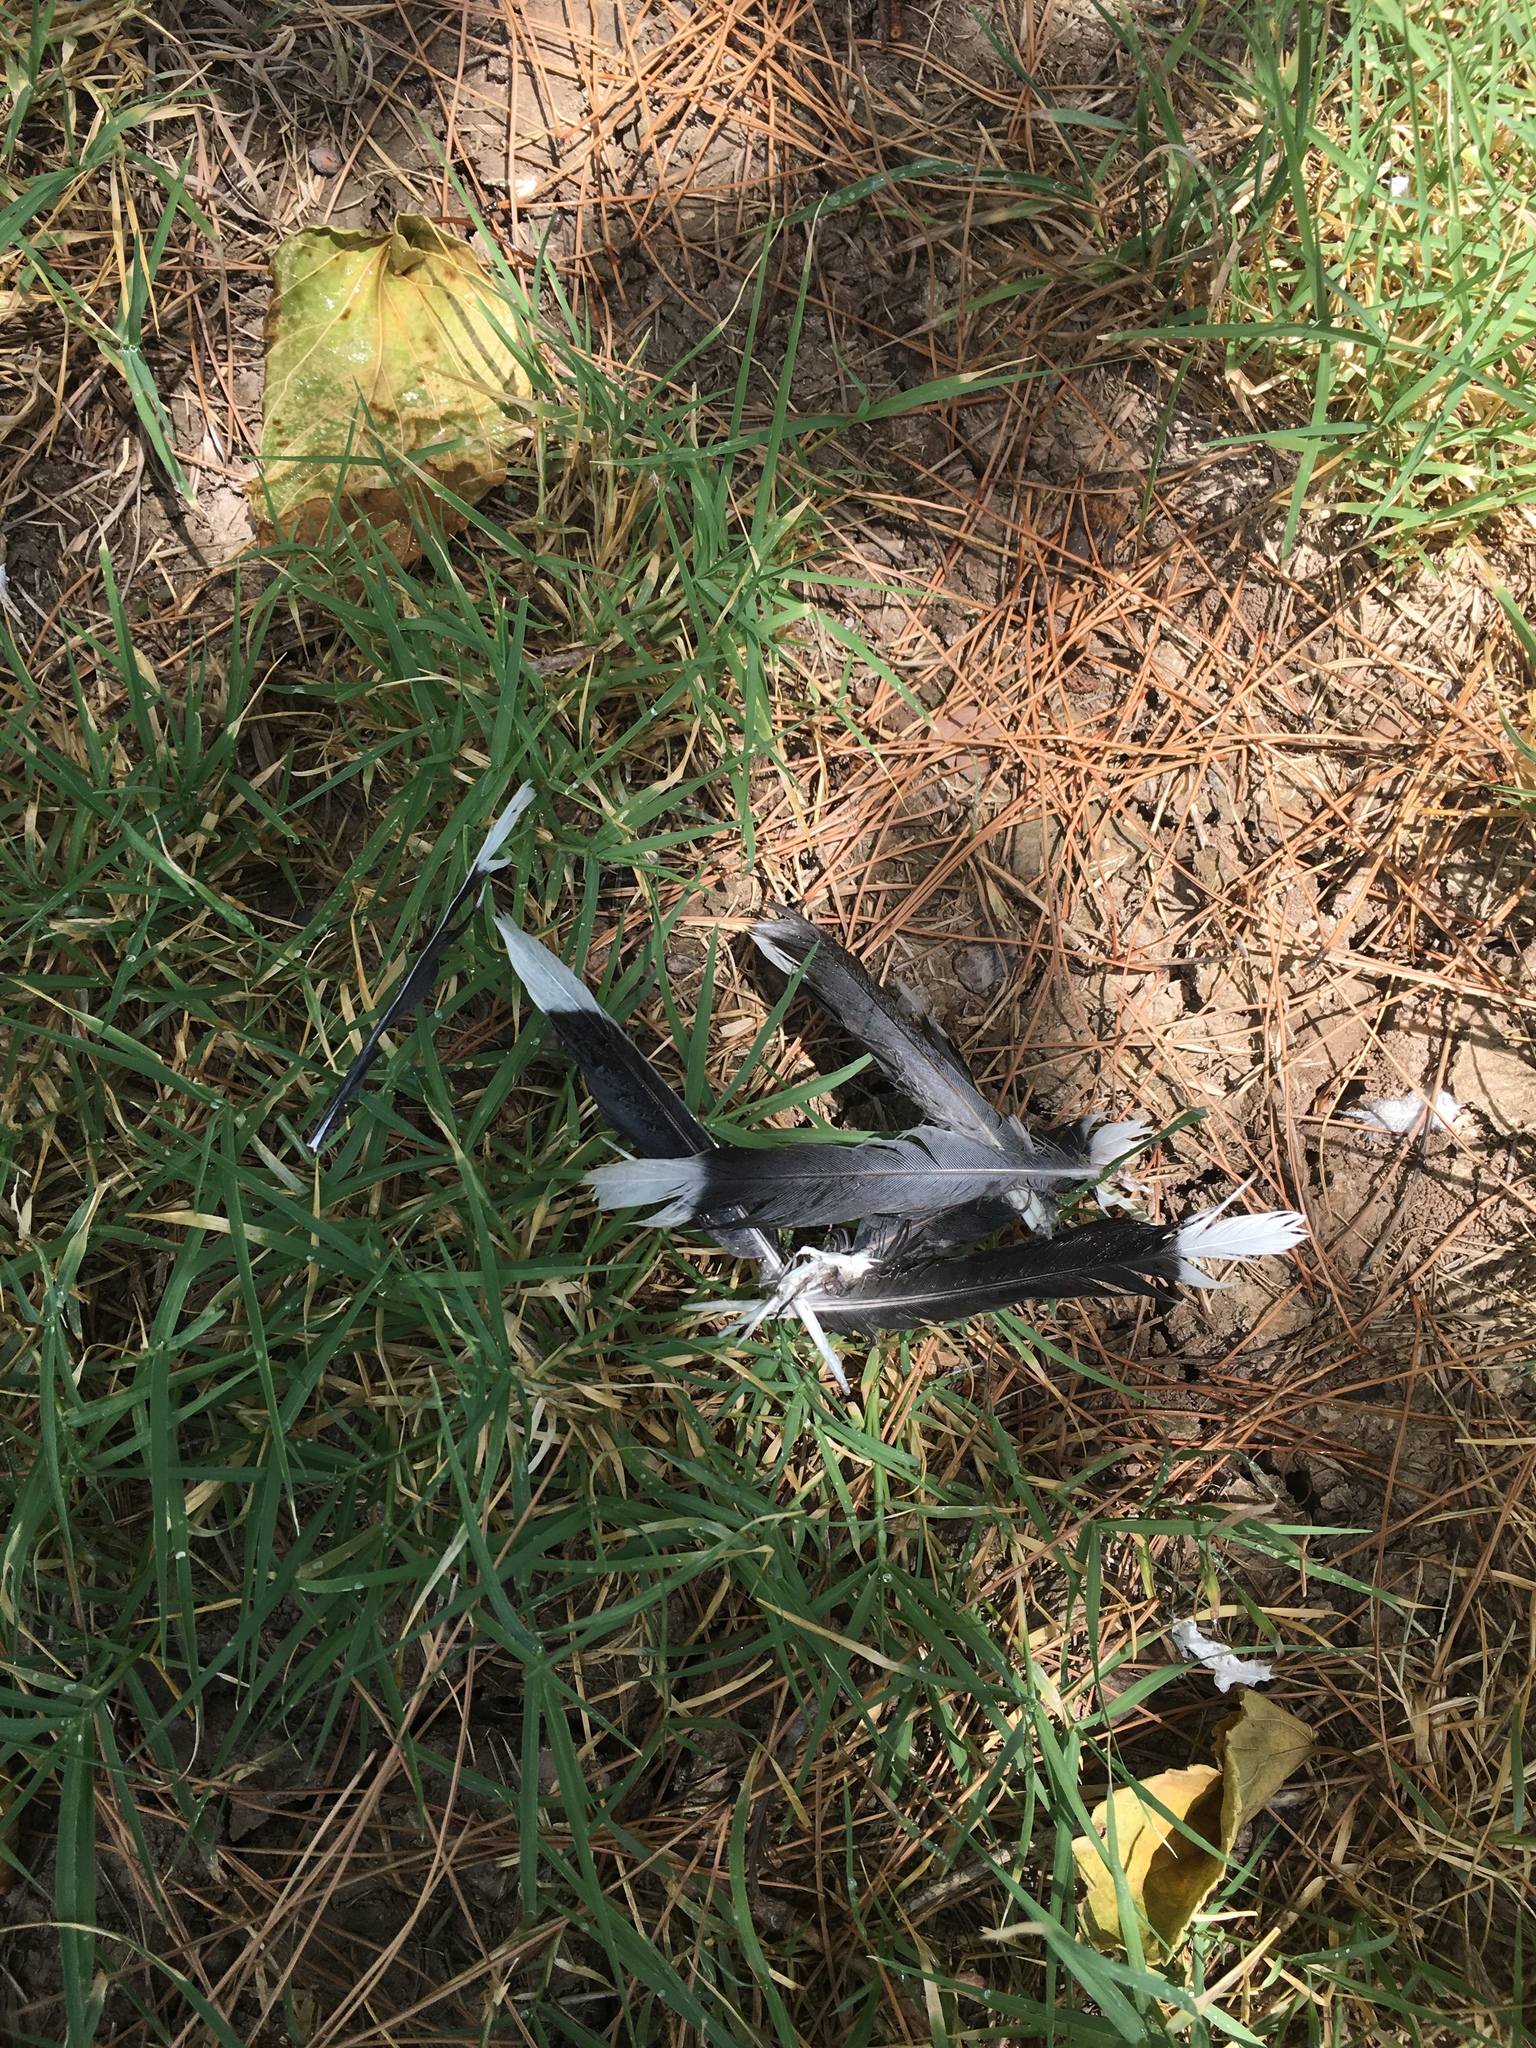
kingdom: Animalia
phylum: Chordata
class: Aves
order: Columbiformes
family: Columbidae
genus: Zenaida
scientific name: Zenaida asiatica
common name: White-winged dove
